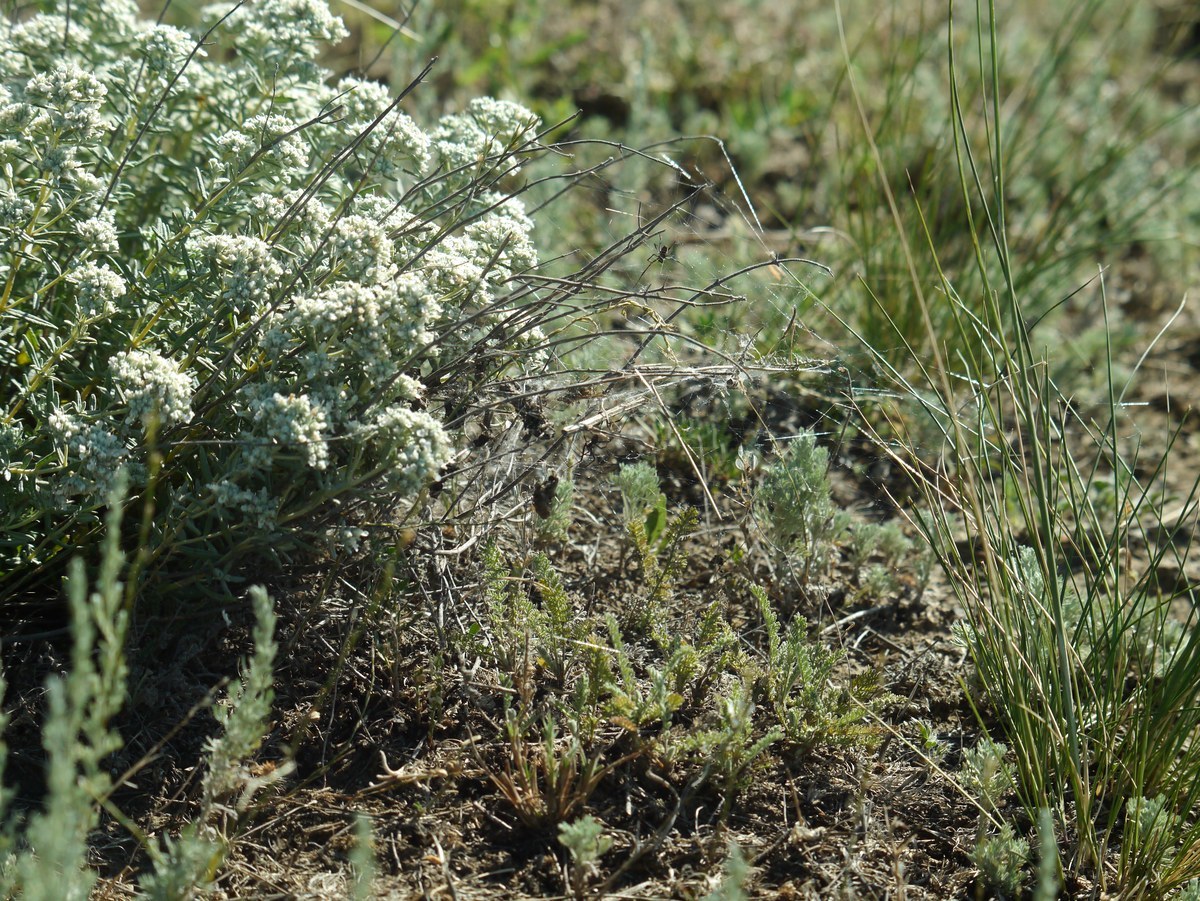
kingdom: Animalia
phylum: Arthropoda
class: Arachnida
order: Araneae
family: Theridiidae
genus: Latrodectus
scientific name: Latrodectus tredecimguttatus
